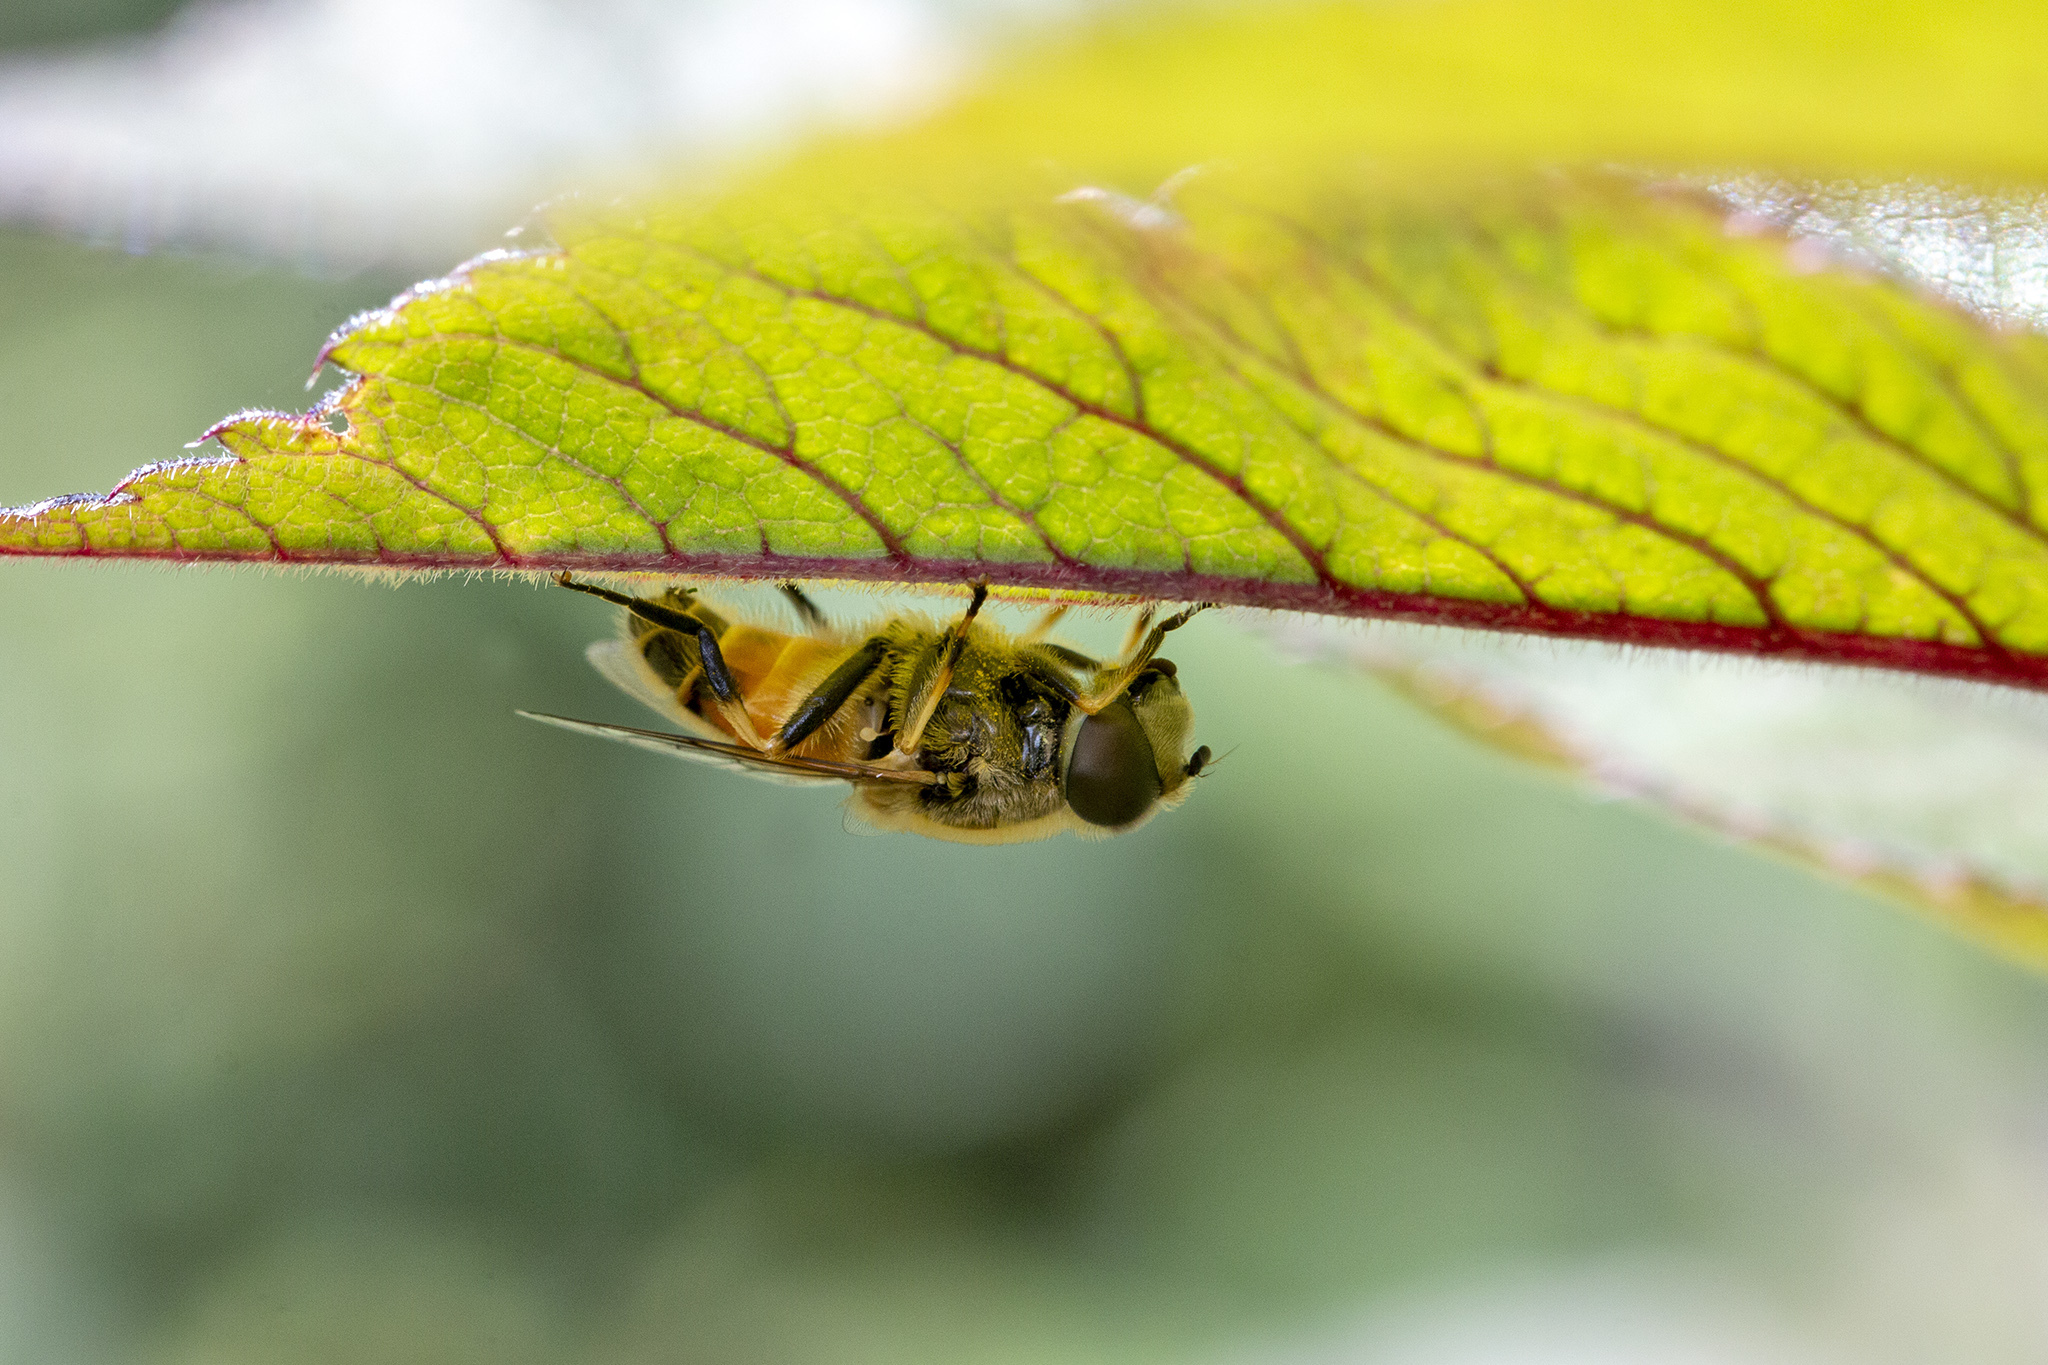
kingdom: Animalia
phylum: Arthropoda
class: Insecta
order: Diptera
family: Syrphidae
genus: Eristalis
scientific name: Eristalis arbustorum
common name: Hover fly
